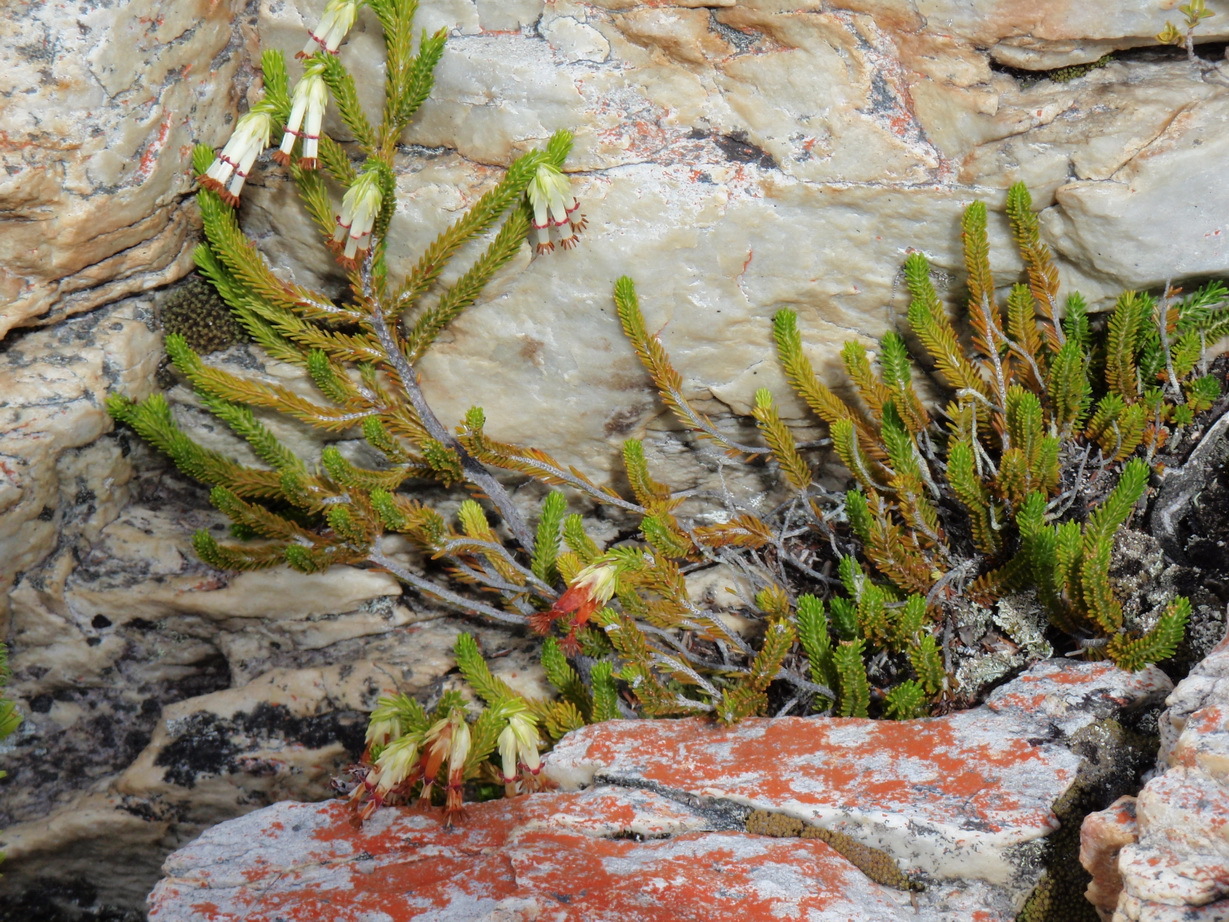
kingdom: Plantae
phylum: Tracheophyta
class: Magnoliopsida
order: Ericales
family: Ericaceae
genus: Erica
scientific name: Erica banksia
